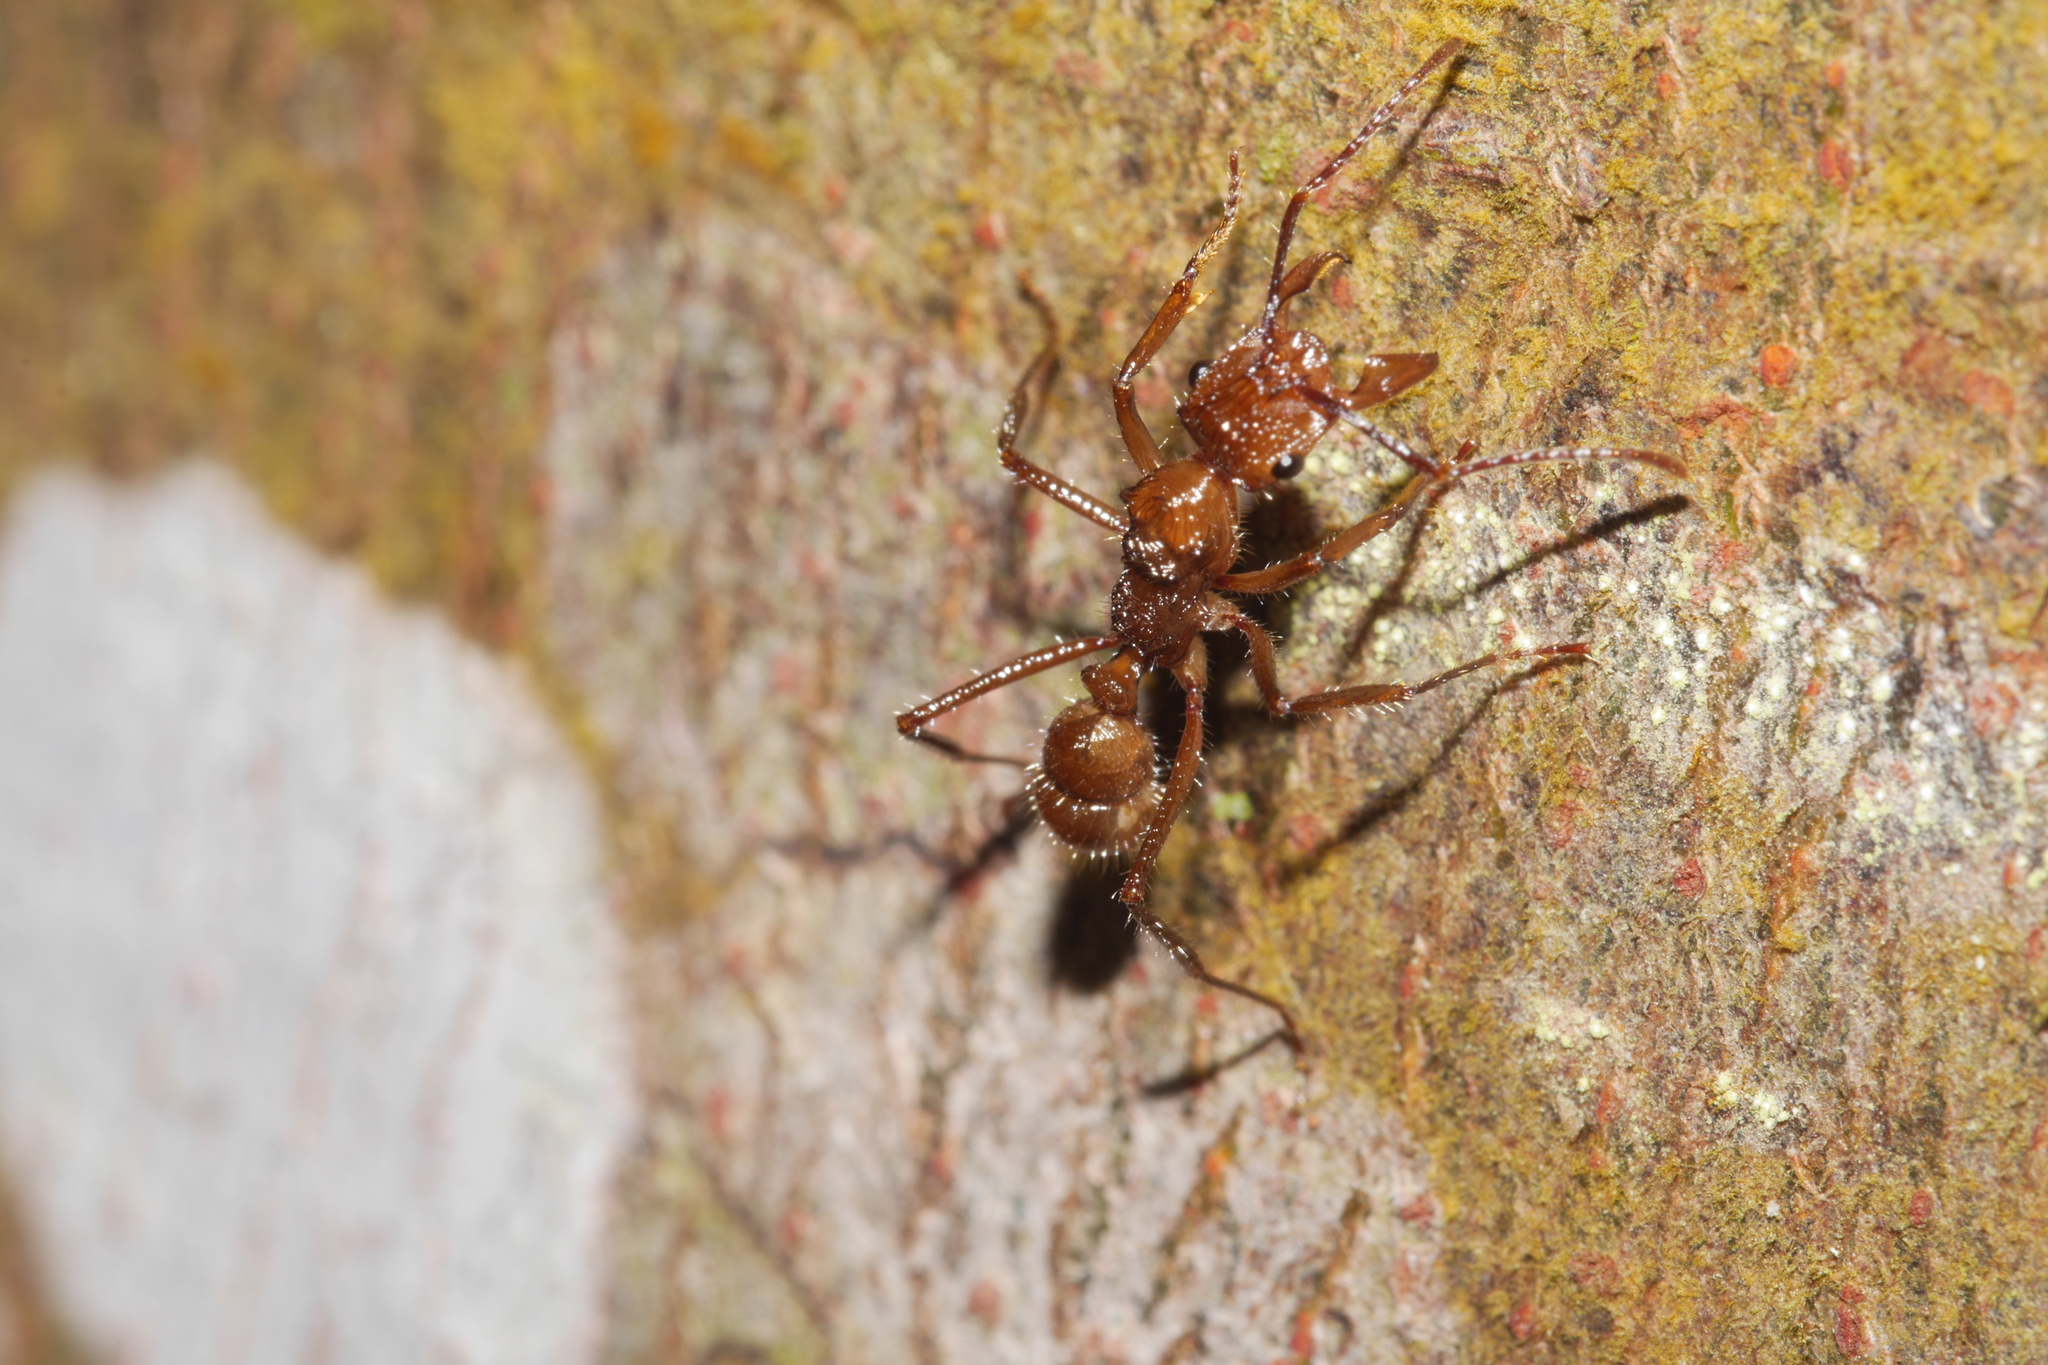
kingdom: Animalia
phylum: Arthropoda
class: Insecta
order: Hymenoptera
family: Formicidae
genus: Ectatomma
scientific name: Ectatomma tuberculatum
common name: Ant
